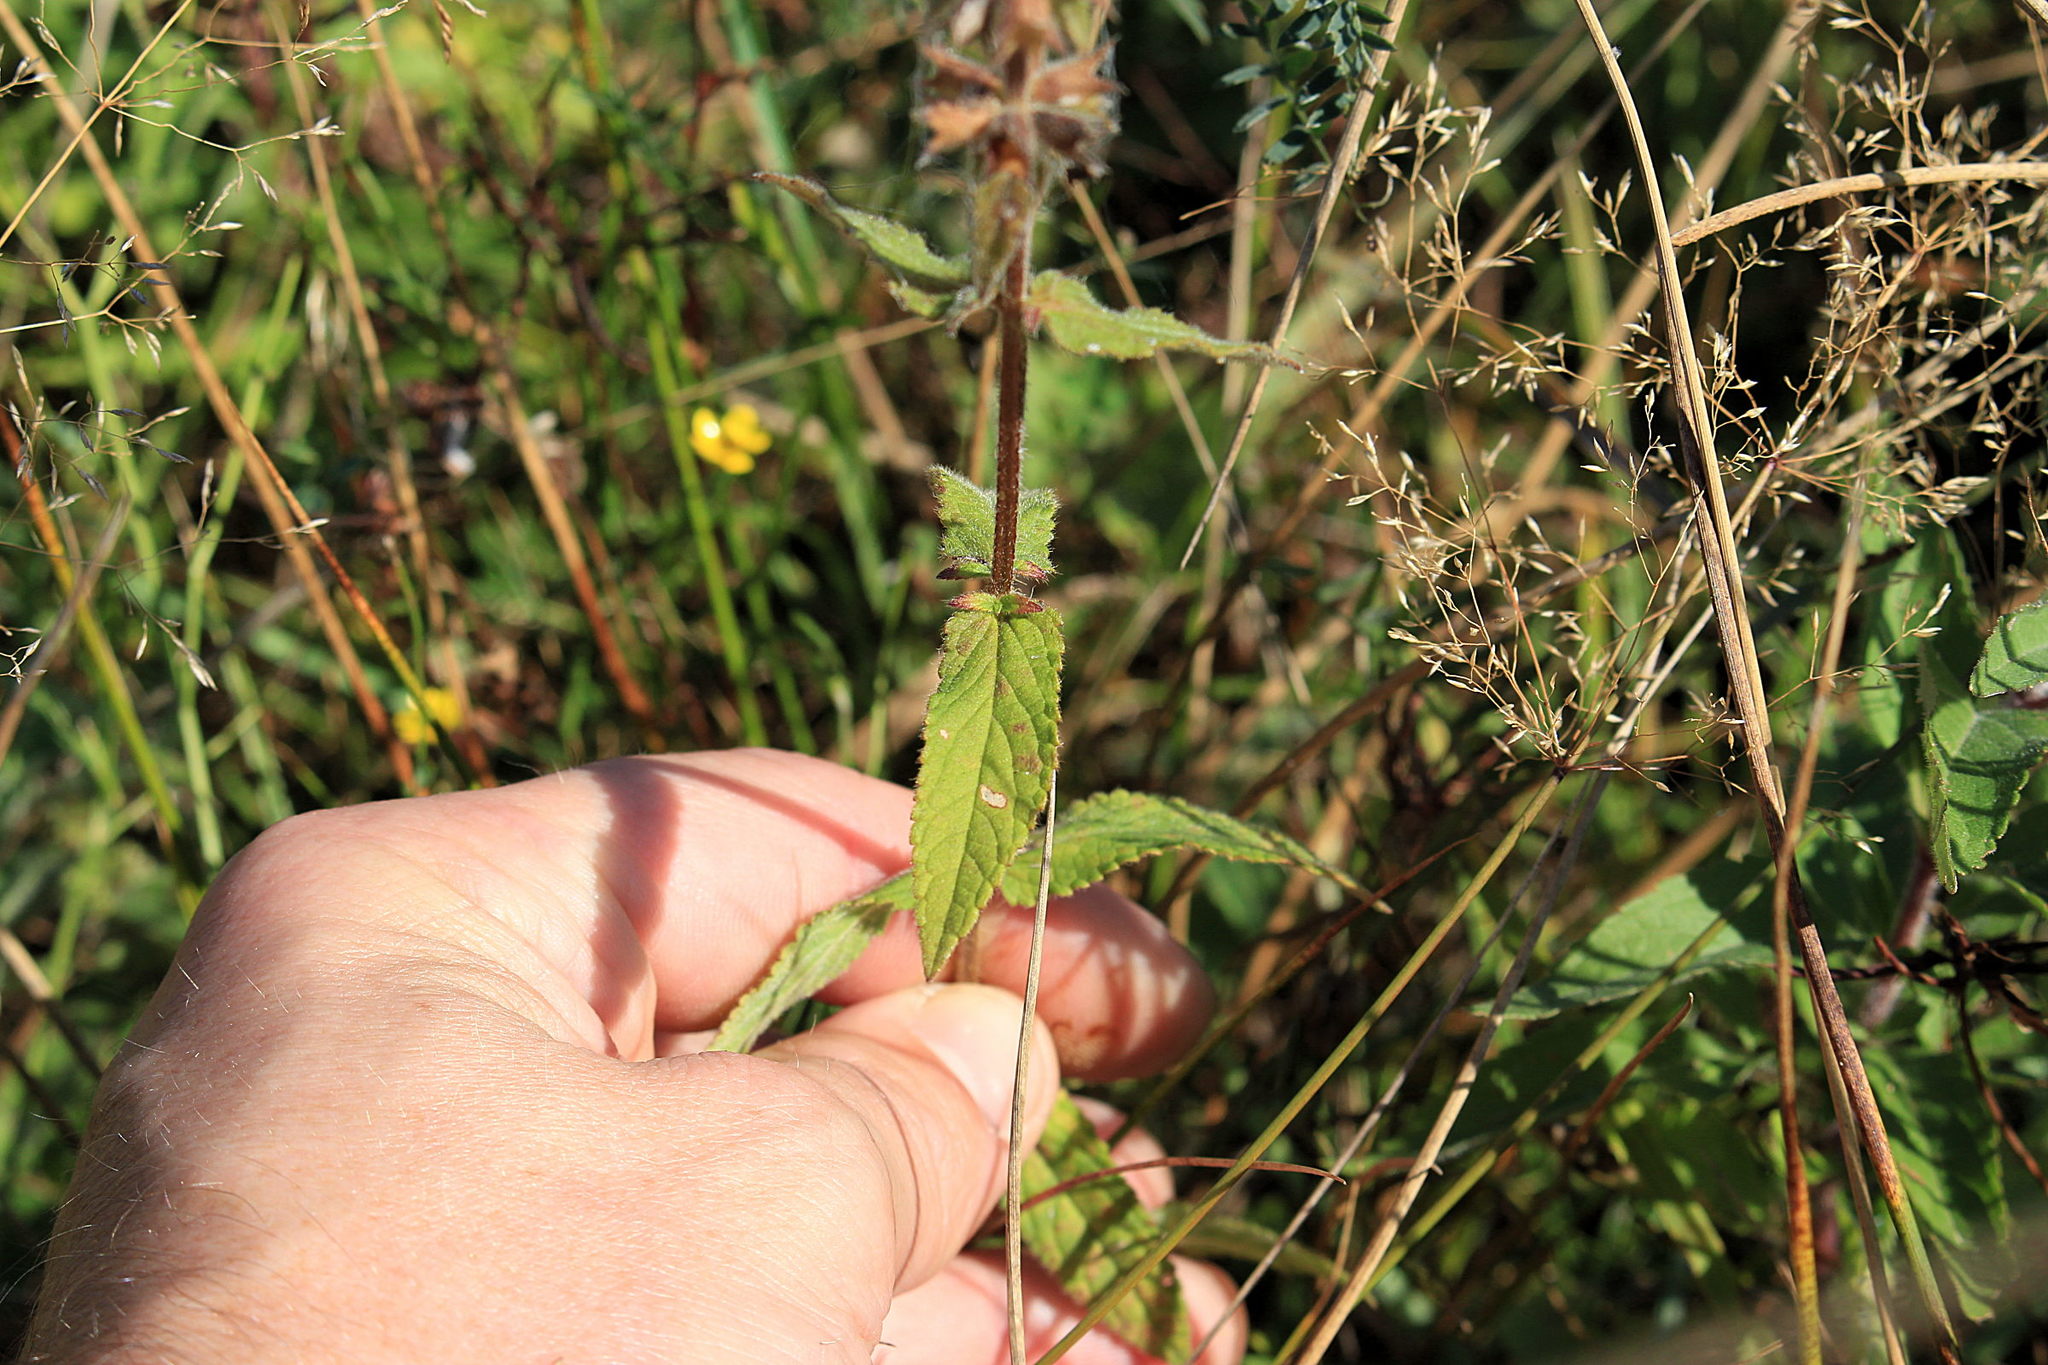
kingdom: Plantae
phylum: Tracheophyta
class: Magnoliopsida
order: Lamiales
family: Lamiaceae
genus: Stachys
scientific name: Stachys palustris
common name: Marsh woundwort
